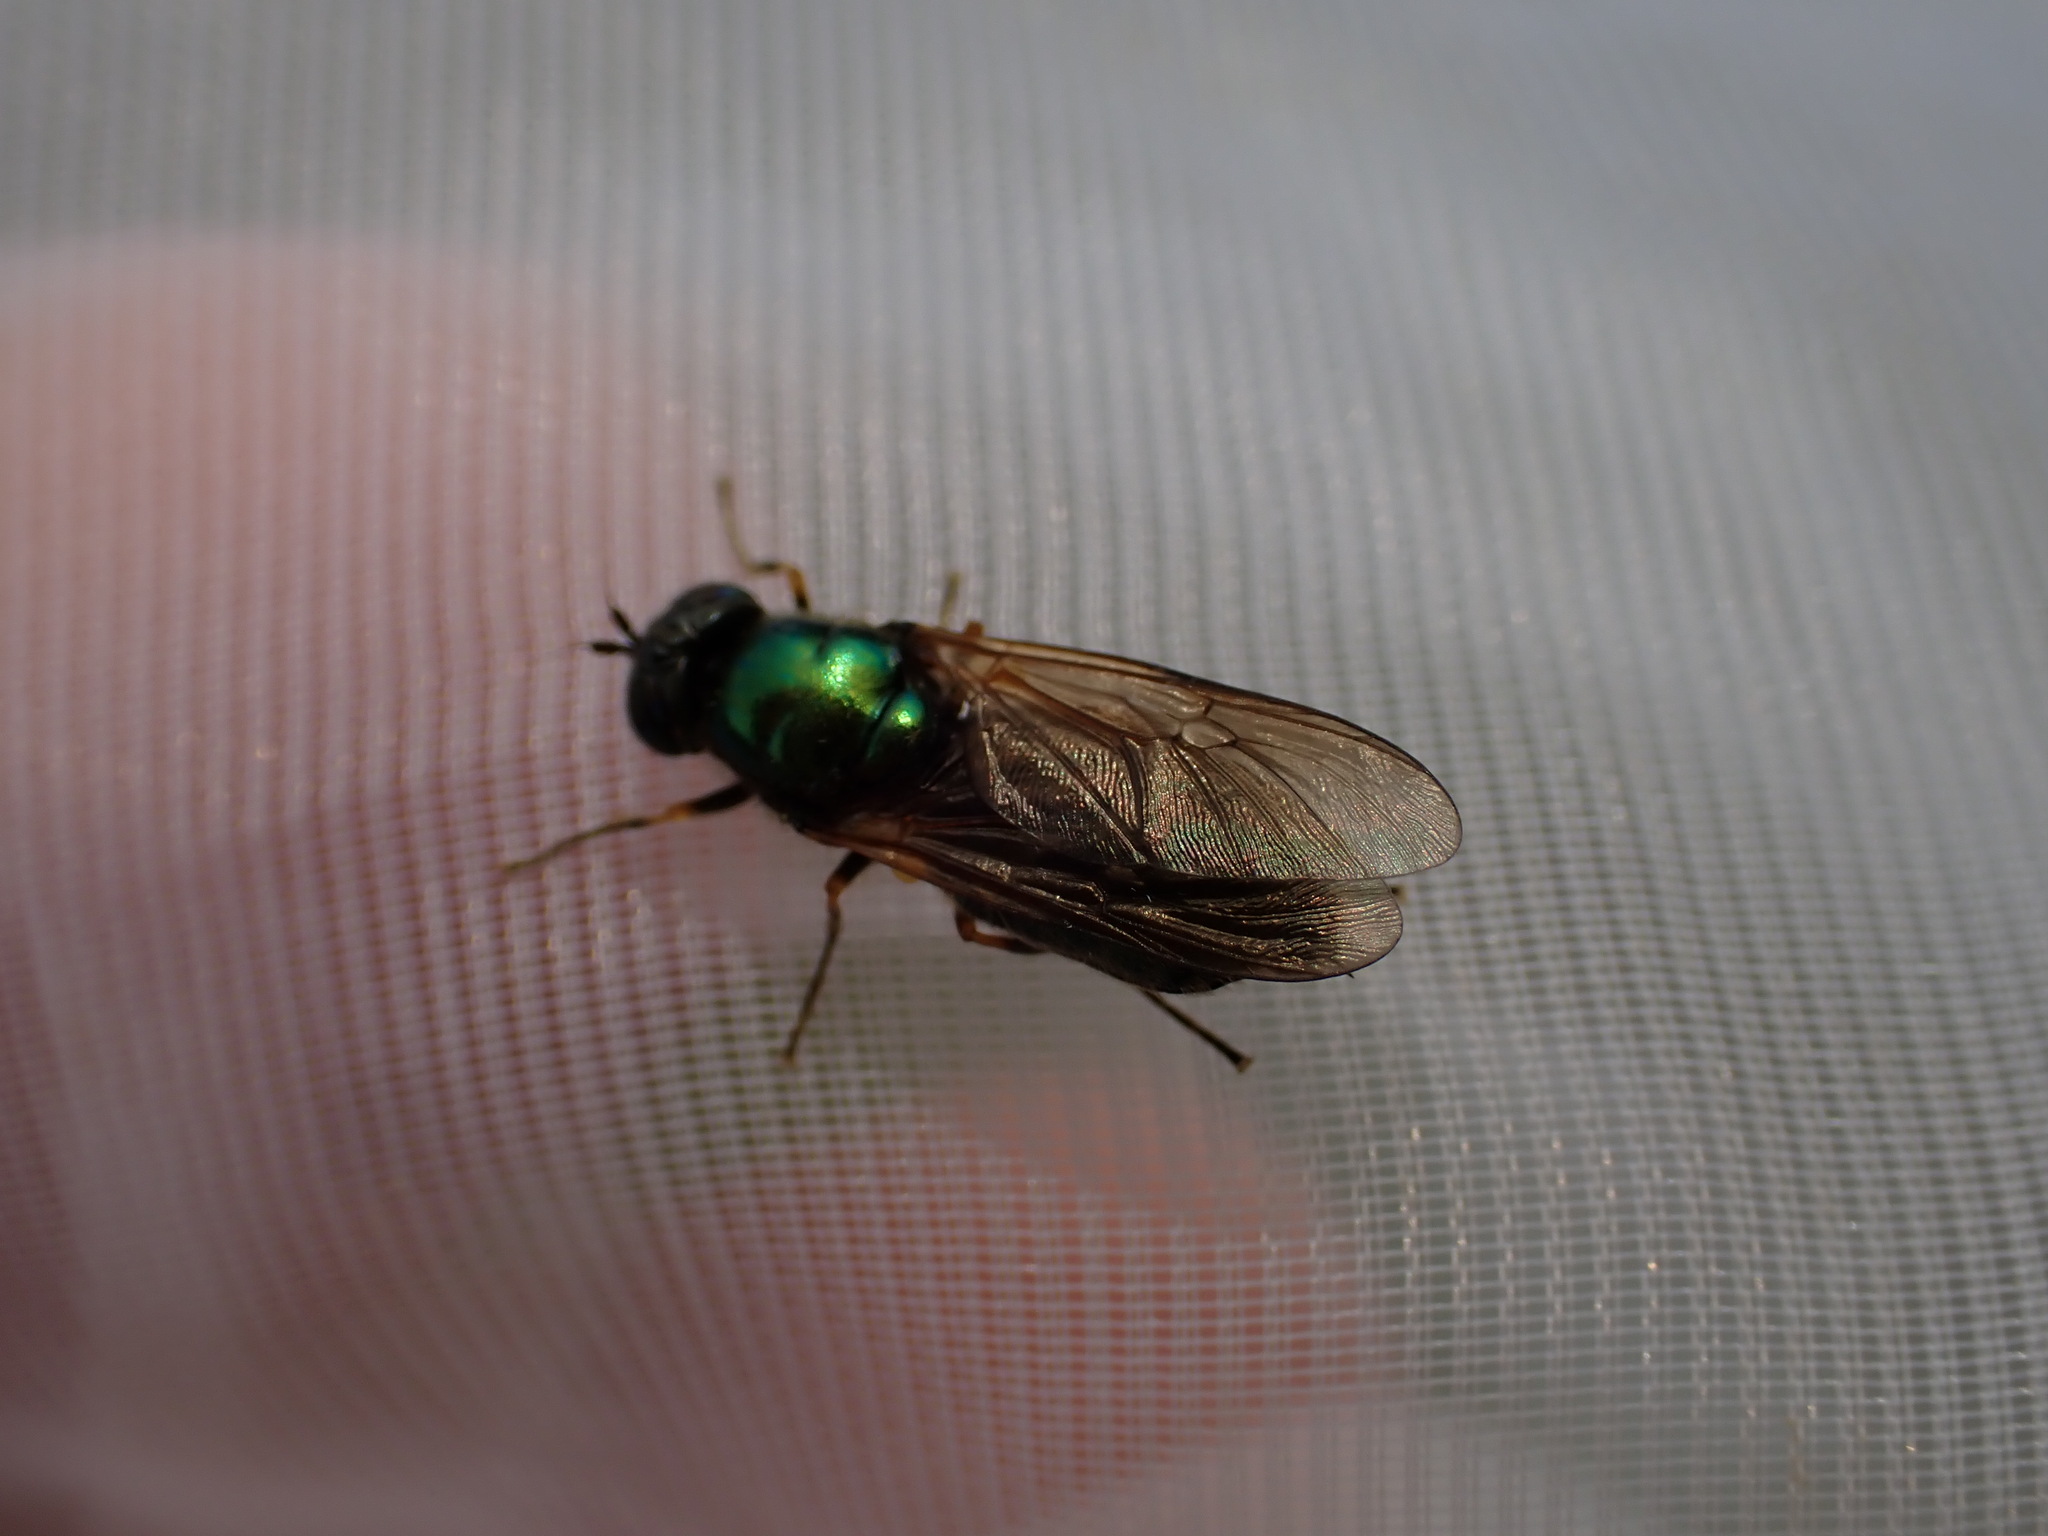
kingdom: Animalia
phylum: Arthropoda
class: Insecta
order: Diptera
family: Stratiomyidae
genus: Chloromyia
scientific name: Chloromyia formosa
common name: Soldier fly
